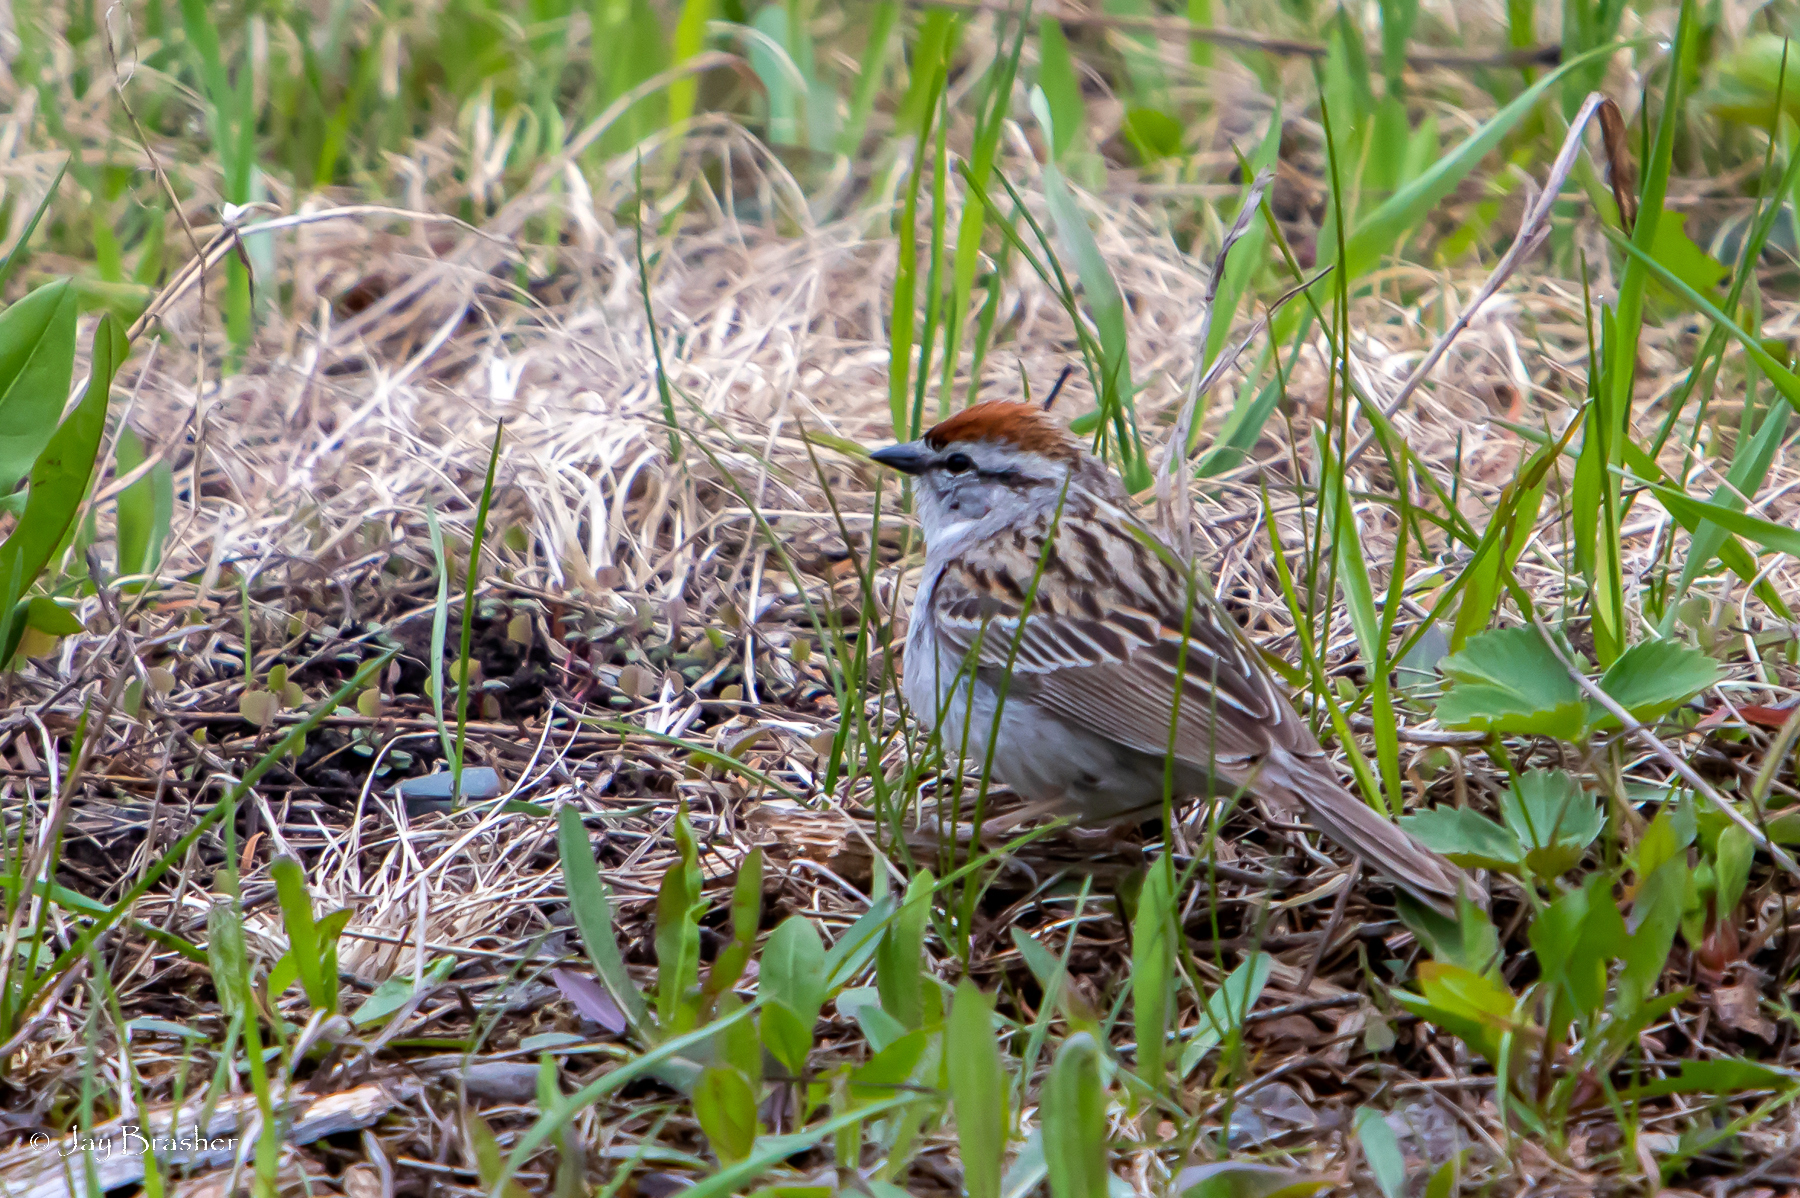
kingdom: Animalia
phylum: Chordata
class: Aves
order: Passeriformes
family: Passerellidae
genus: Spizella
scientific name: Spizella passerina
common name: Chipping sparrow
